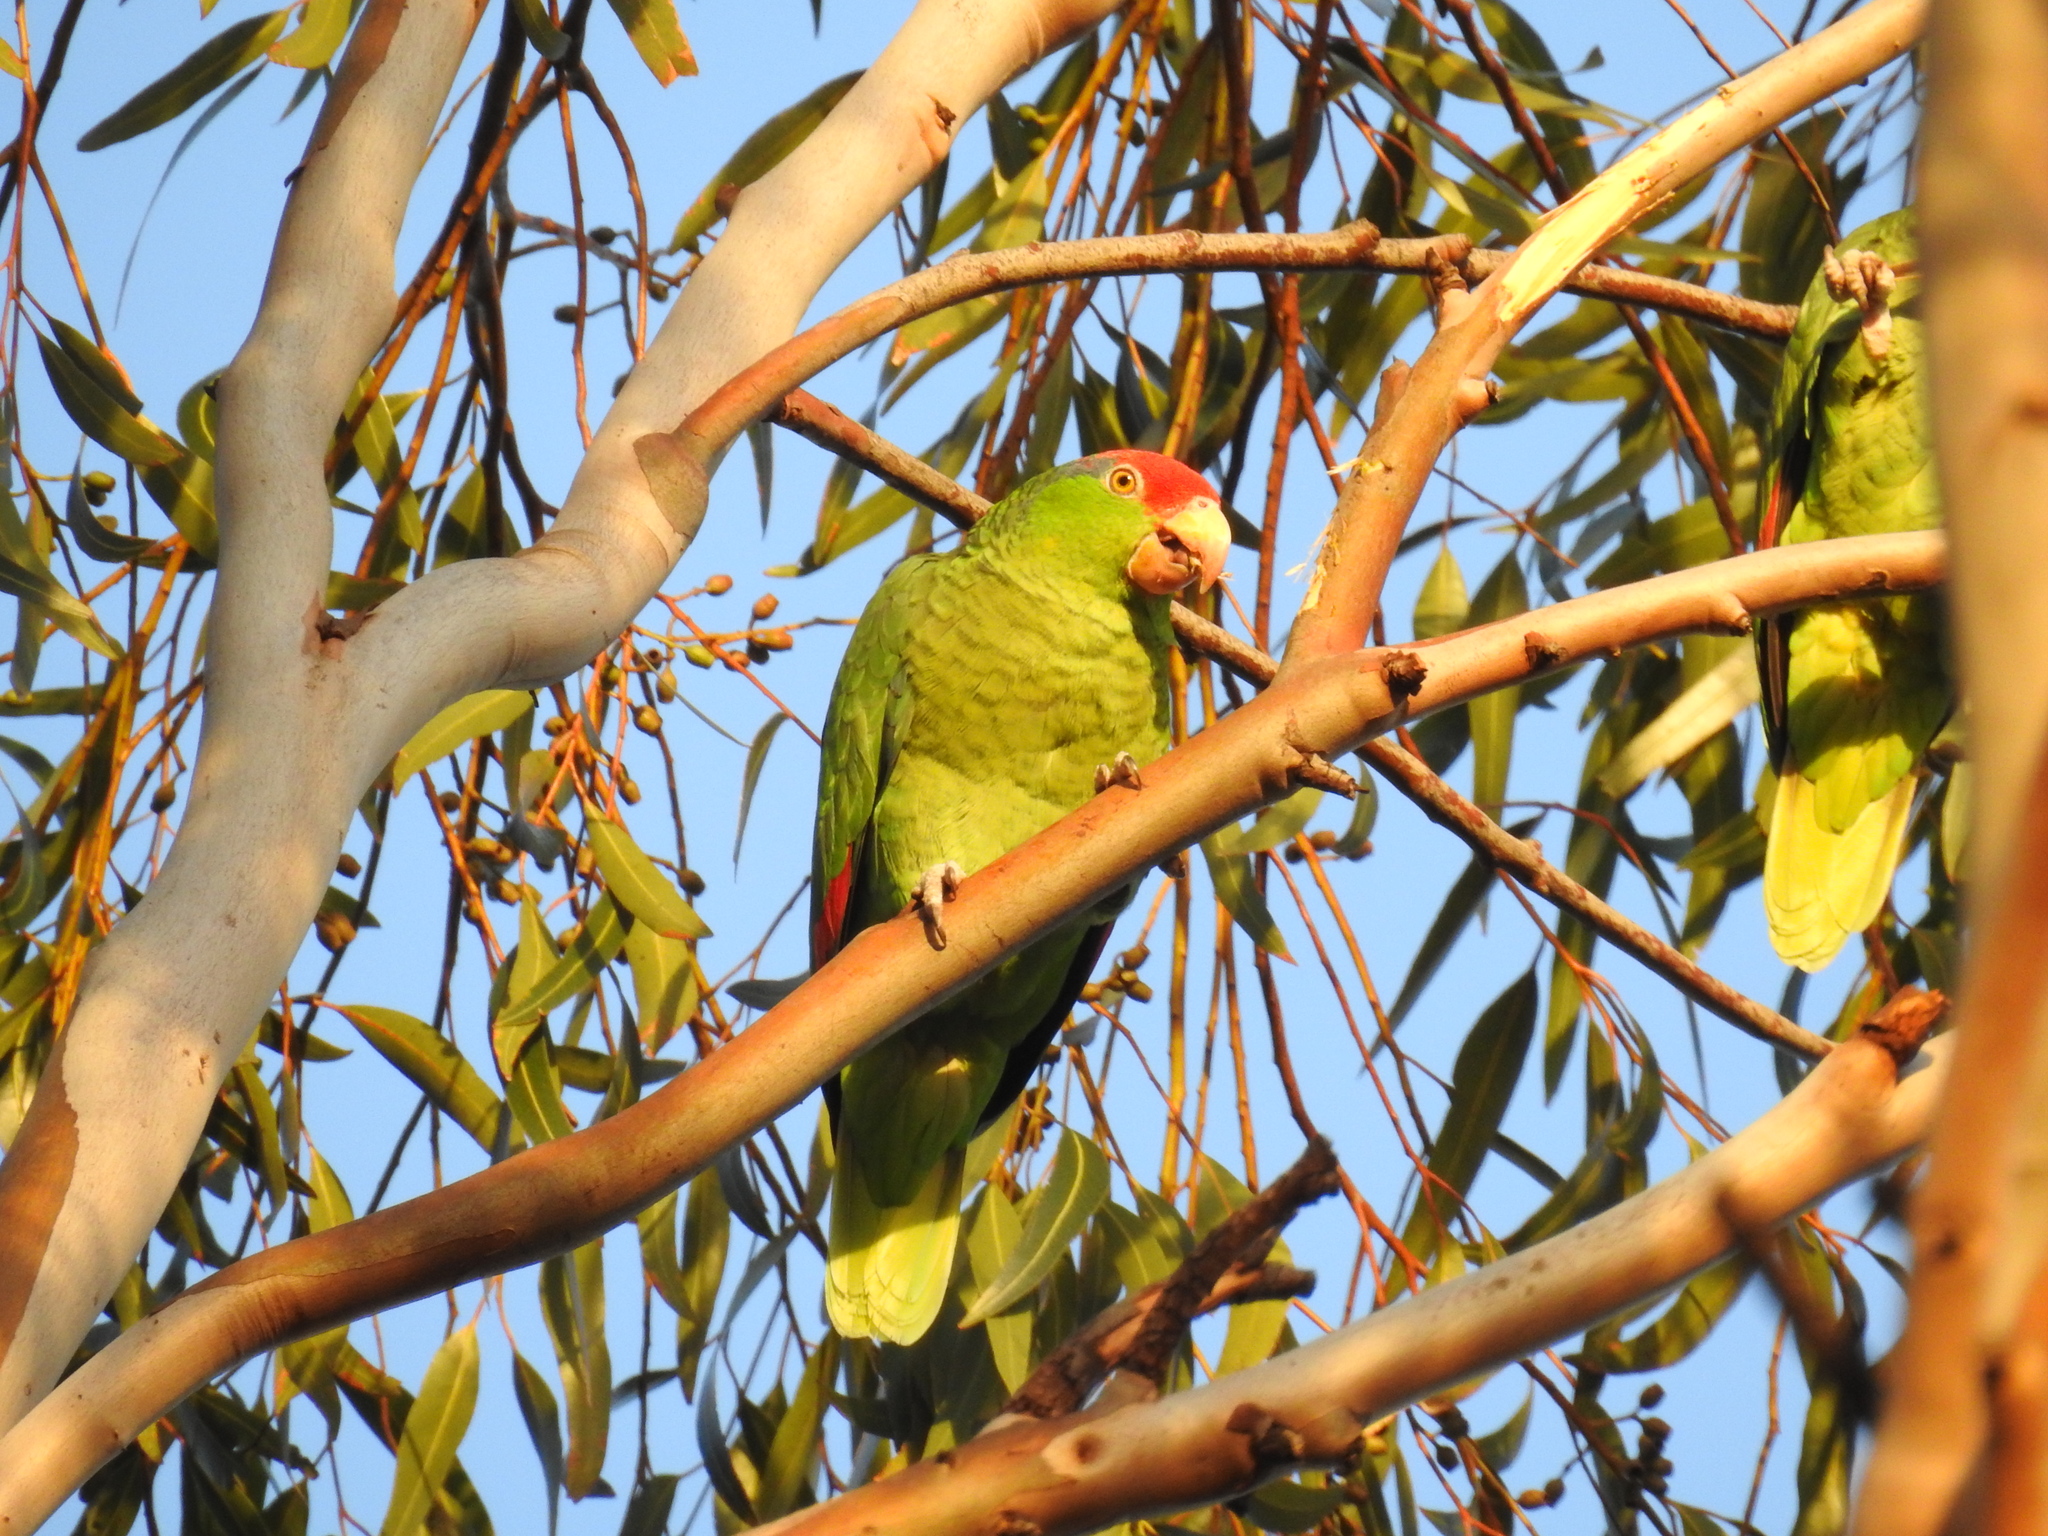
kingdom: Animalia
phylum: Chordata
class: Aves
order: Psittaciformes
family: Psittacidae
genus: Amazona
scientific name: Amazona viridigenalis
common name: Red-crowned amazon
